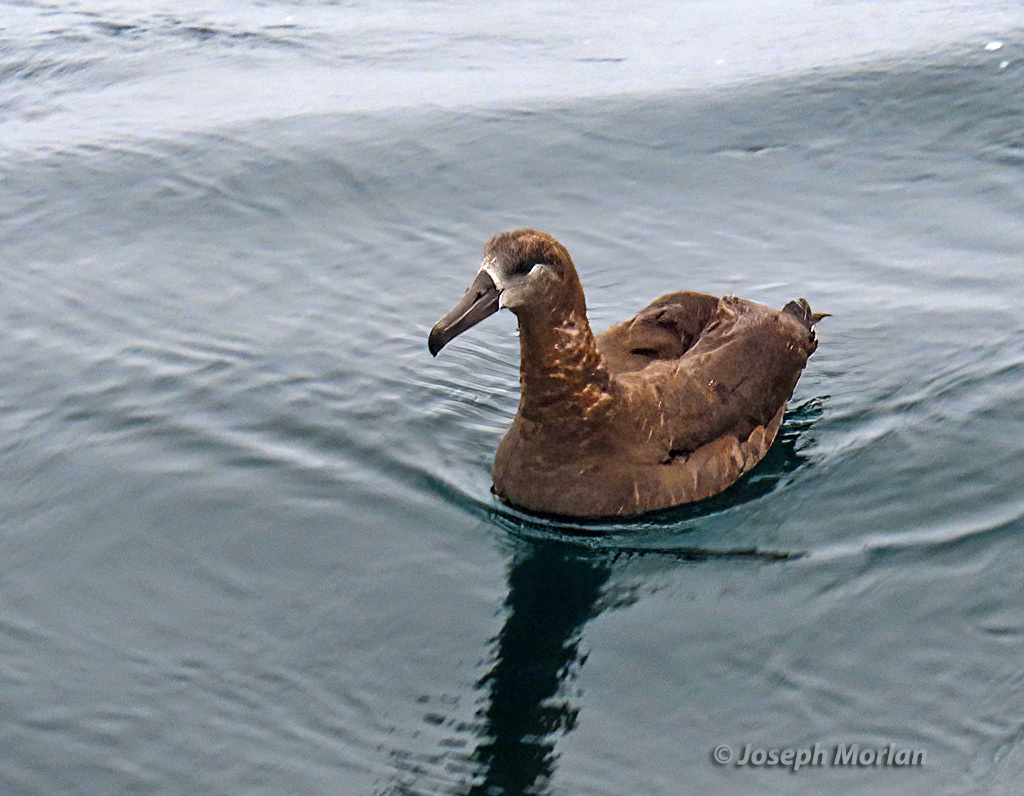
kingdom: Animalia
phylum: Chordata
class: Aves
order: Procellariiformes
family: Diomedeidae
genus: Phoebastria
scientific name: Phoebastria nigripes
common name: Black-footed albatross
